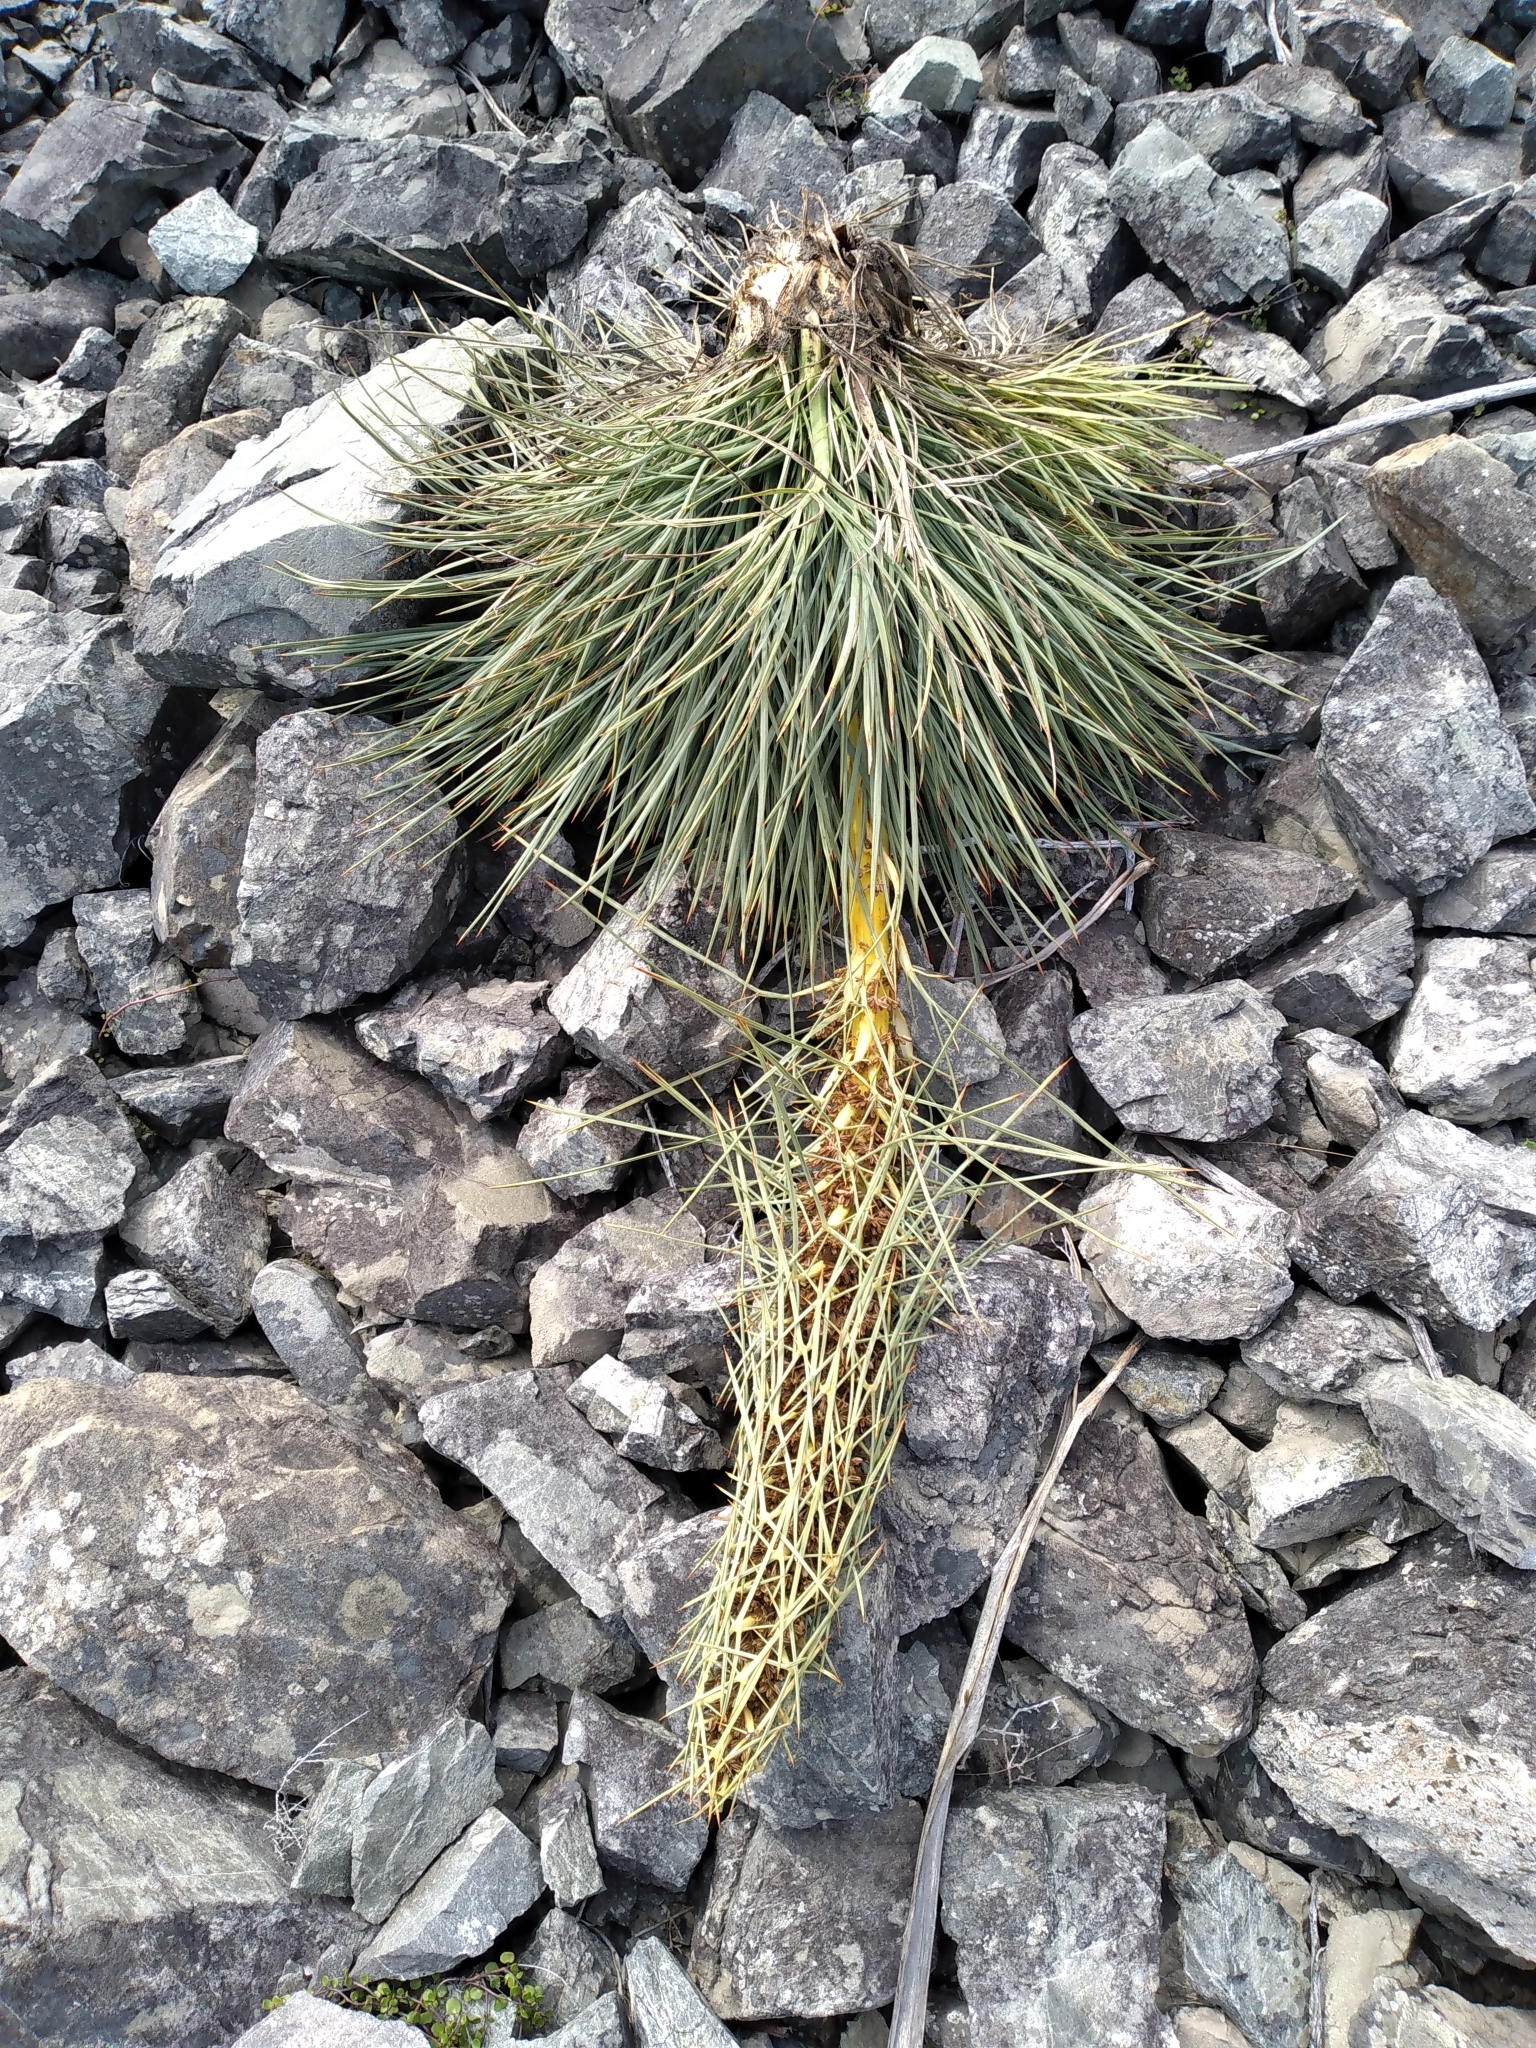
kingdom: Plantae
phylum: Tracheophyta
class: Magnoliopsida
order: Apiales
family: Apiaceae
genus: Aciphylla
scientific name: Aciphylla squarrosa
